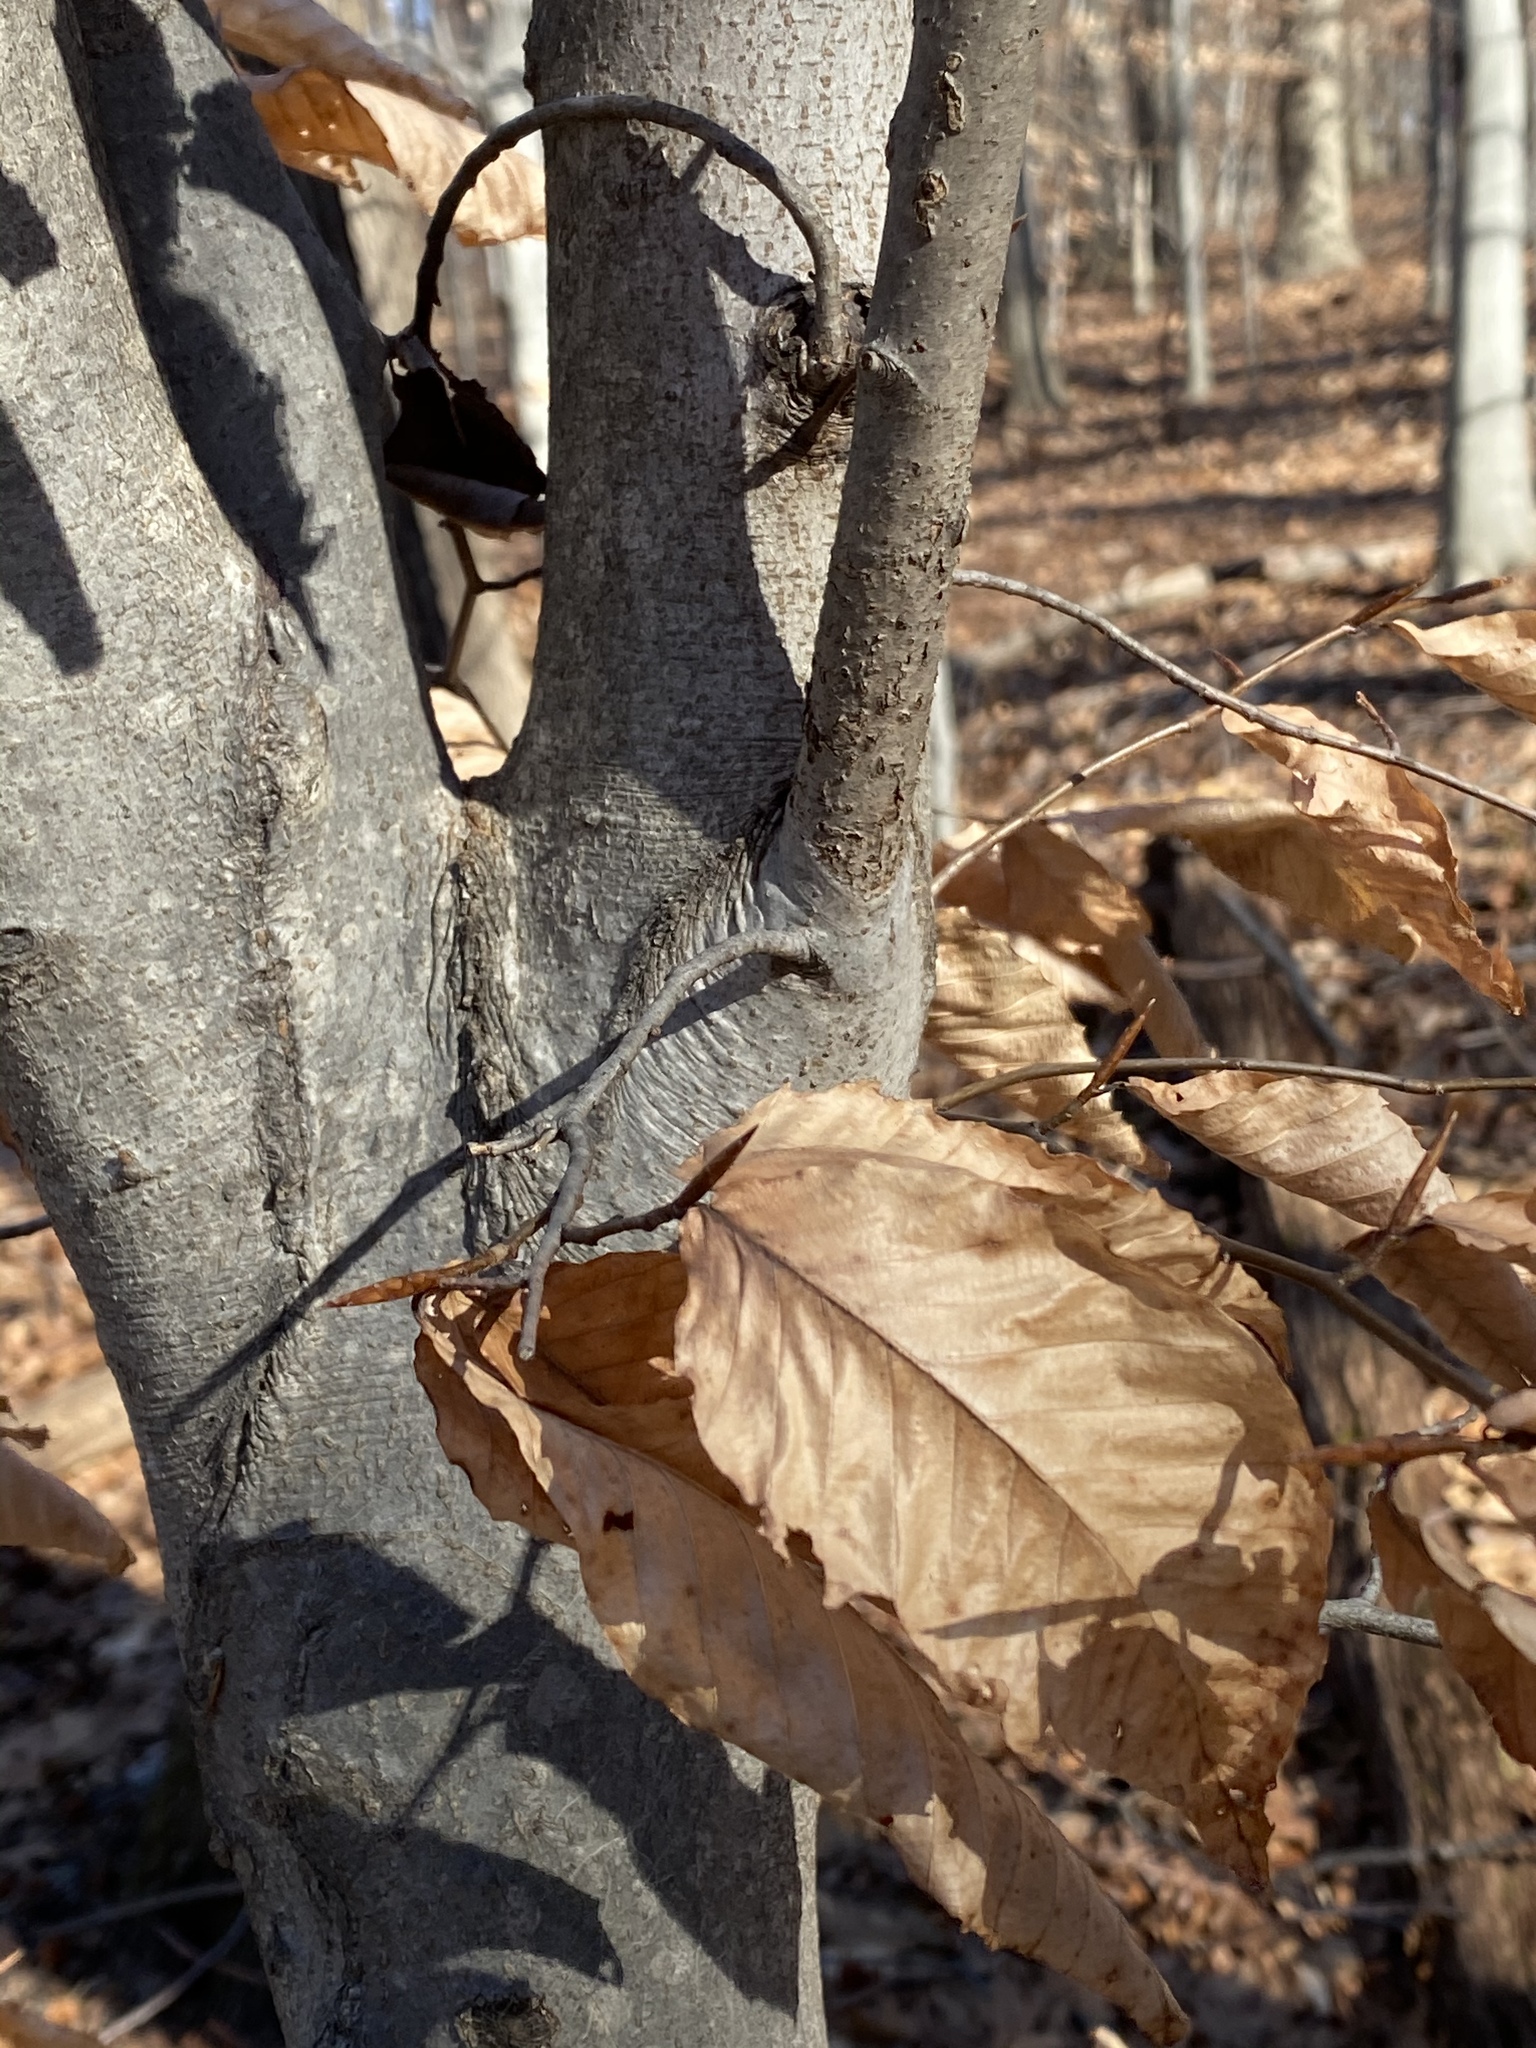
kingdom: Plantae
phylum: Tracheophyta
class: Magnoliopsida
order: Fagales
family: Fagaceae
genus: Fagus
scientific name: Fagus grandifolia
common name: American beech
